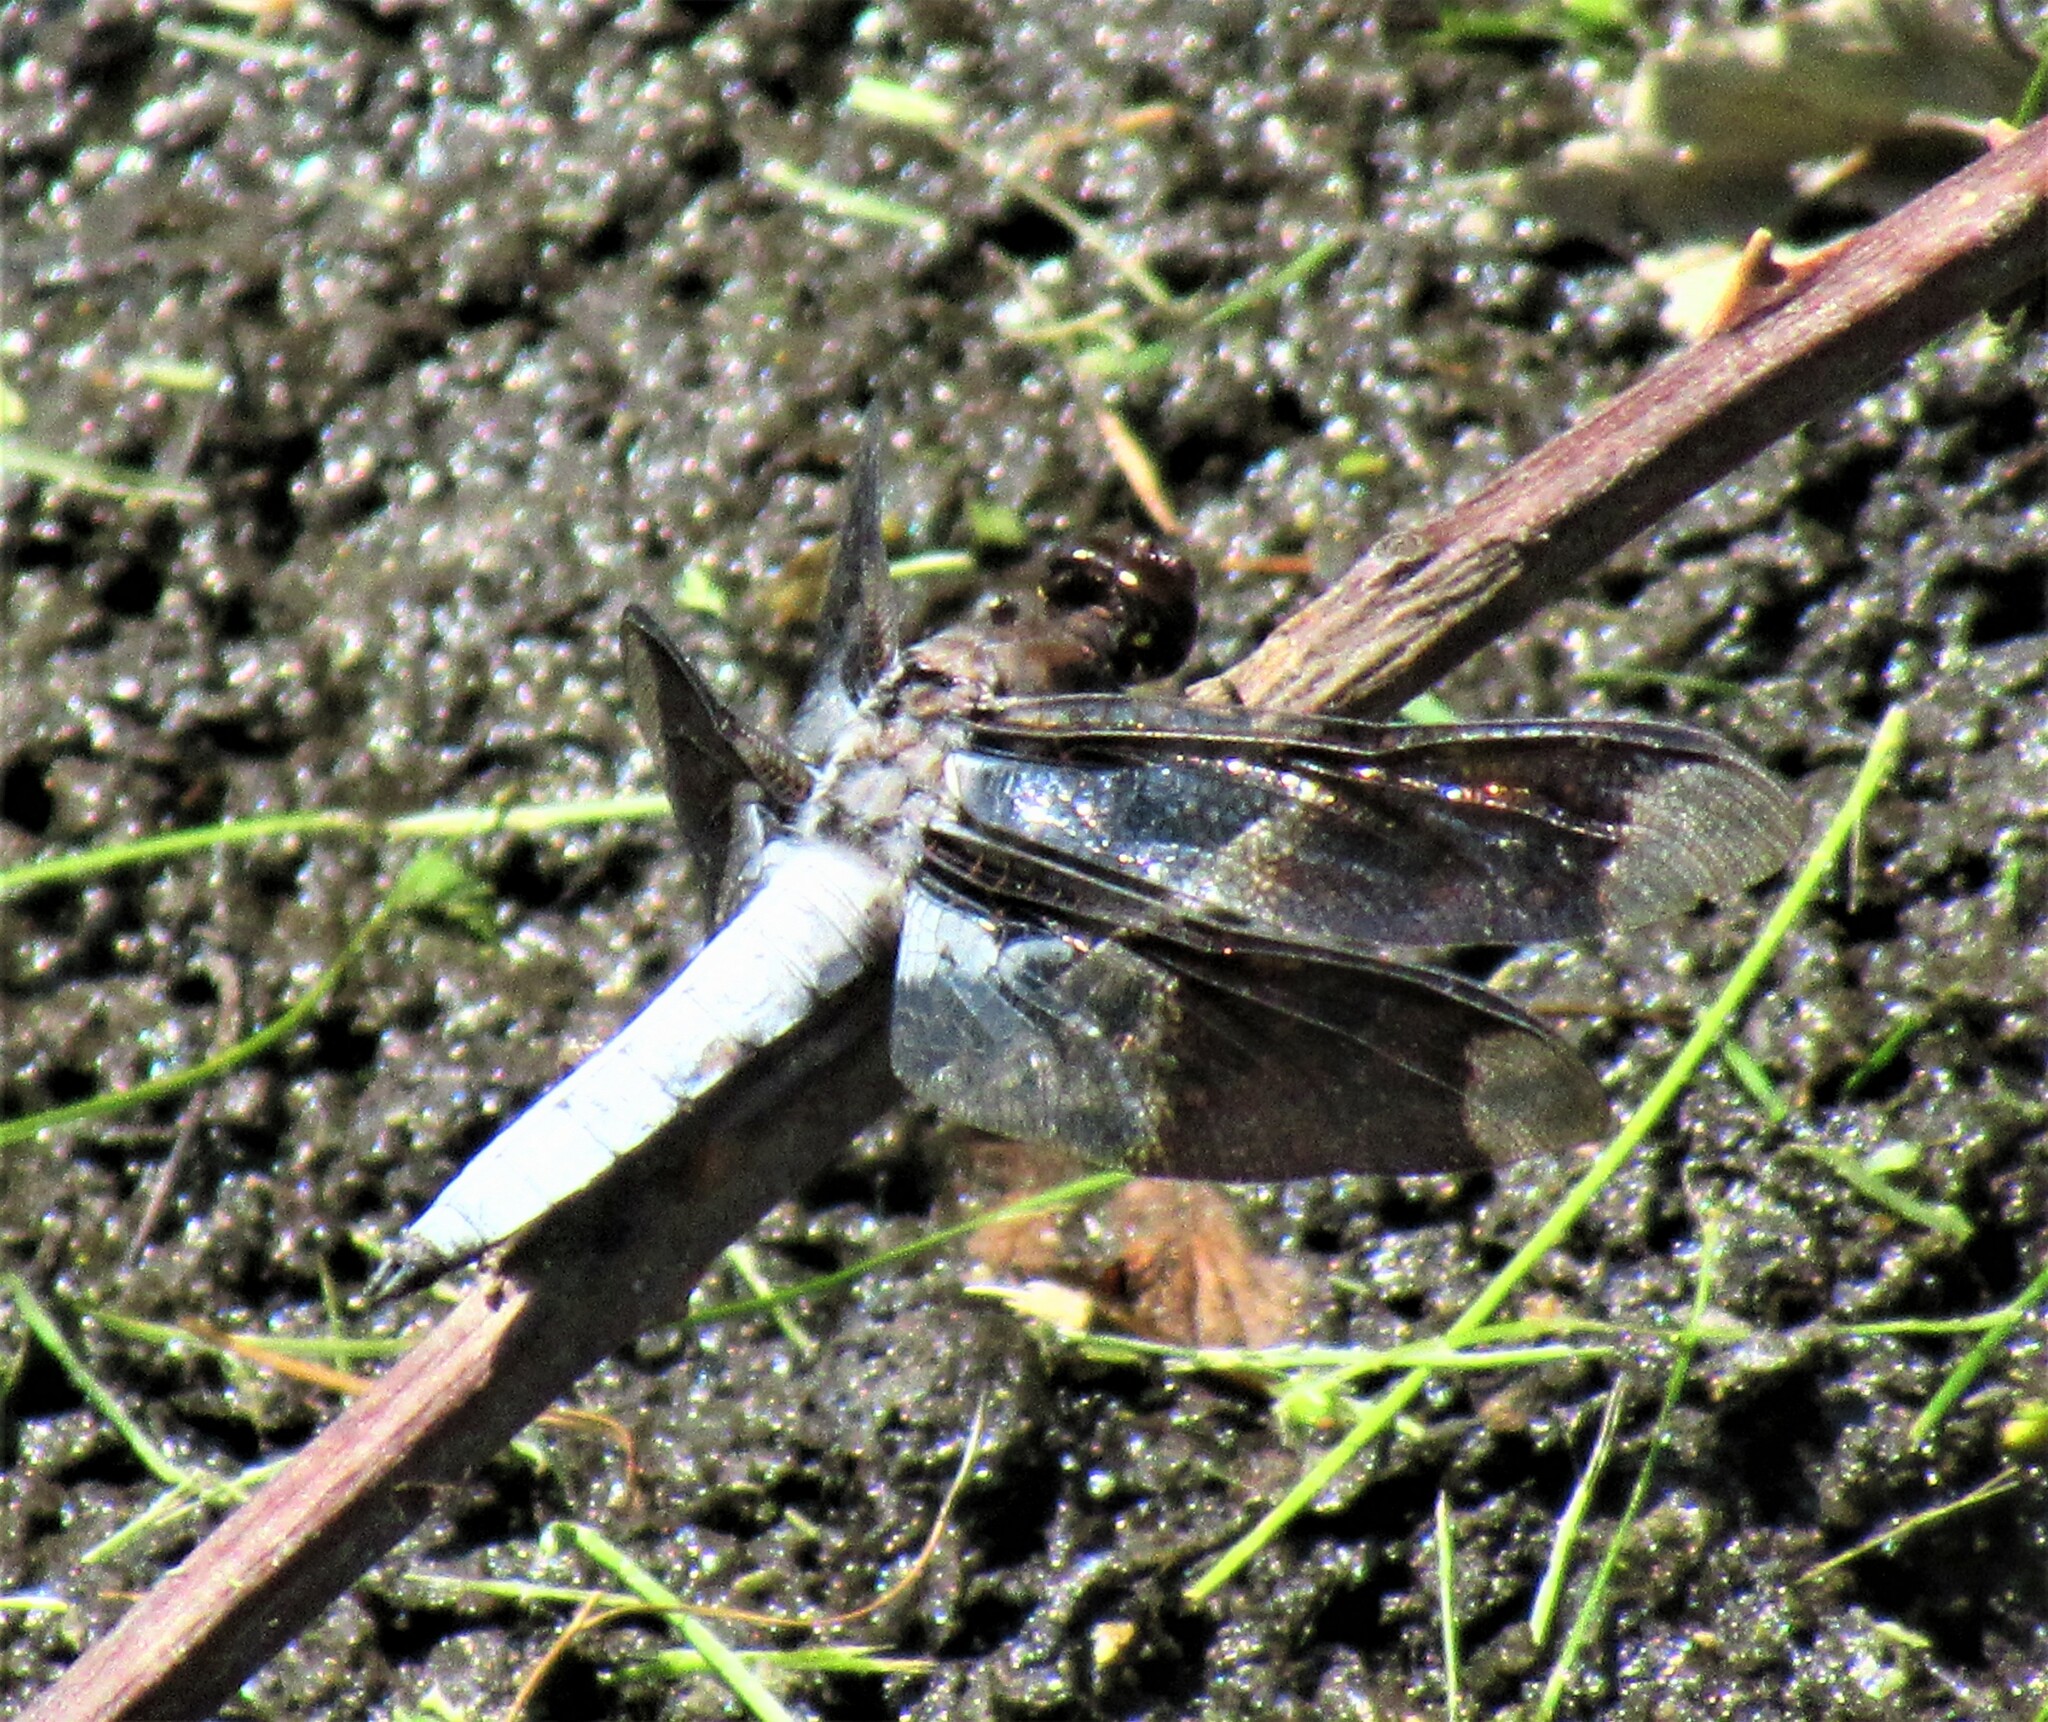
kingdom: Animalia
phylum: Arthropoda
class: Insecta
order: Odonata
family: Libellulidae
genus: Plathemis
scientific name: Plathemis lydia
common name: Common whitetail
